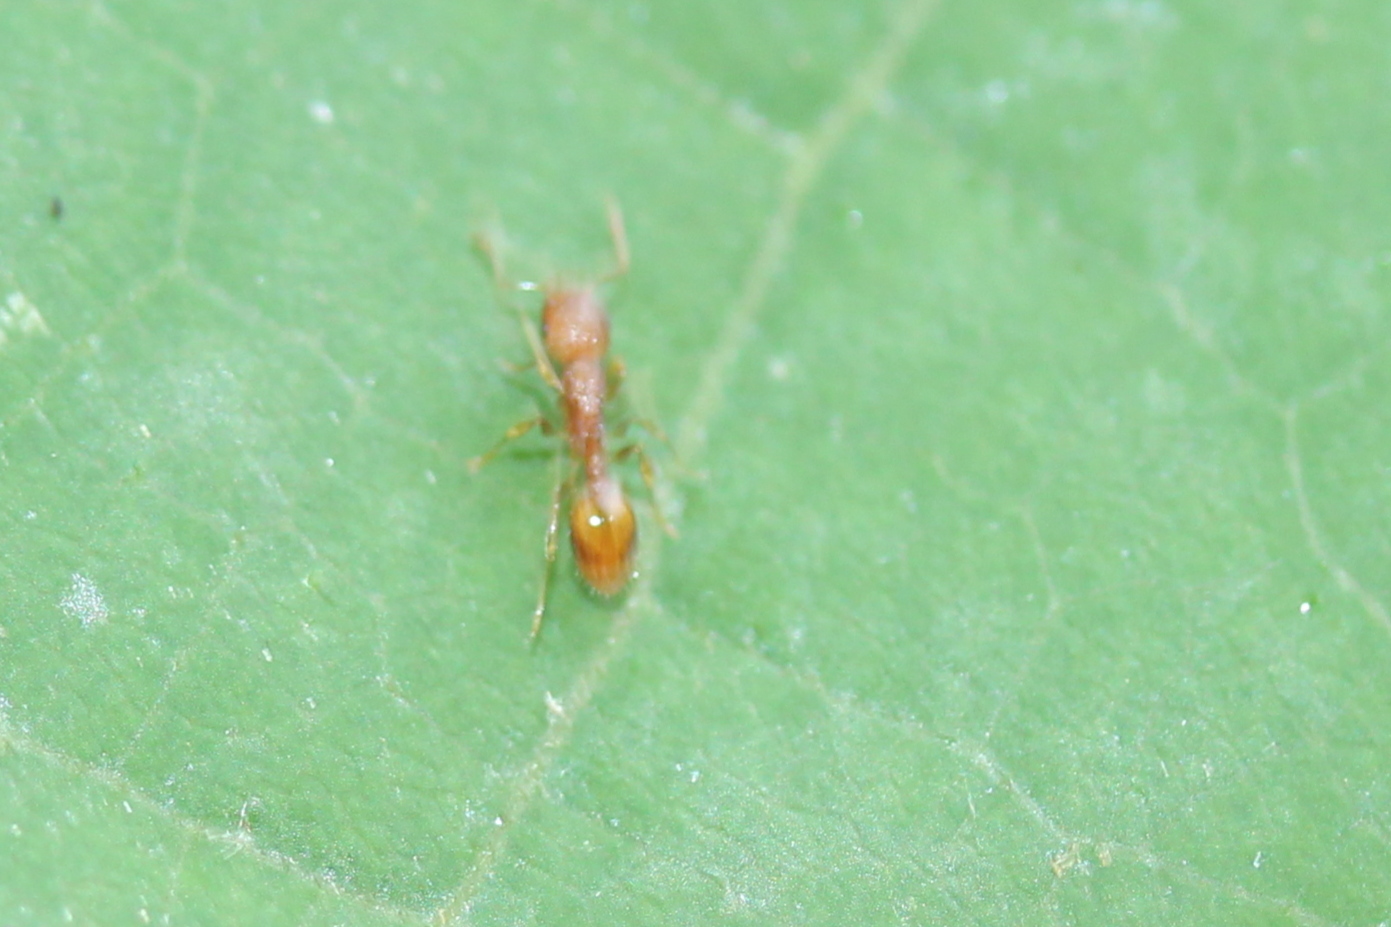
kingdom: Animalia
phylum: Arthropoda
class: Insecta
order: Hymenoptera
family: Formicidae
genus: Temnothorax
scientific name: Temnothorax curvispinosus
